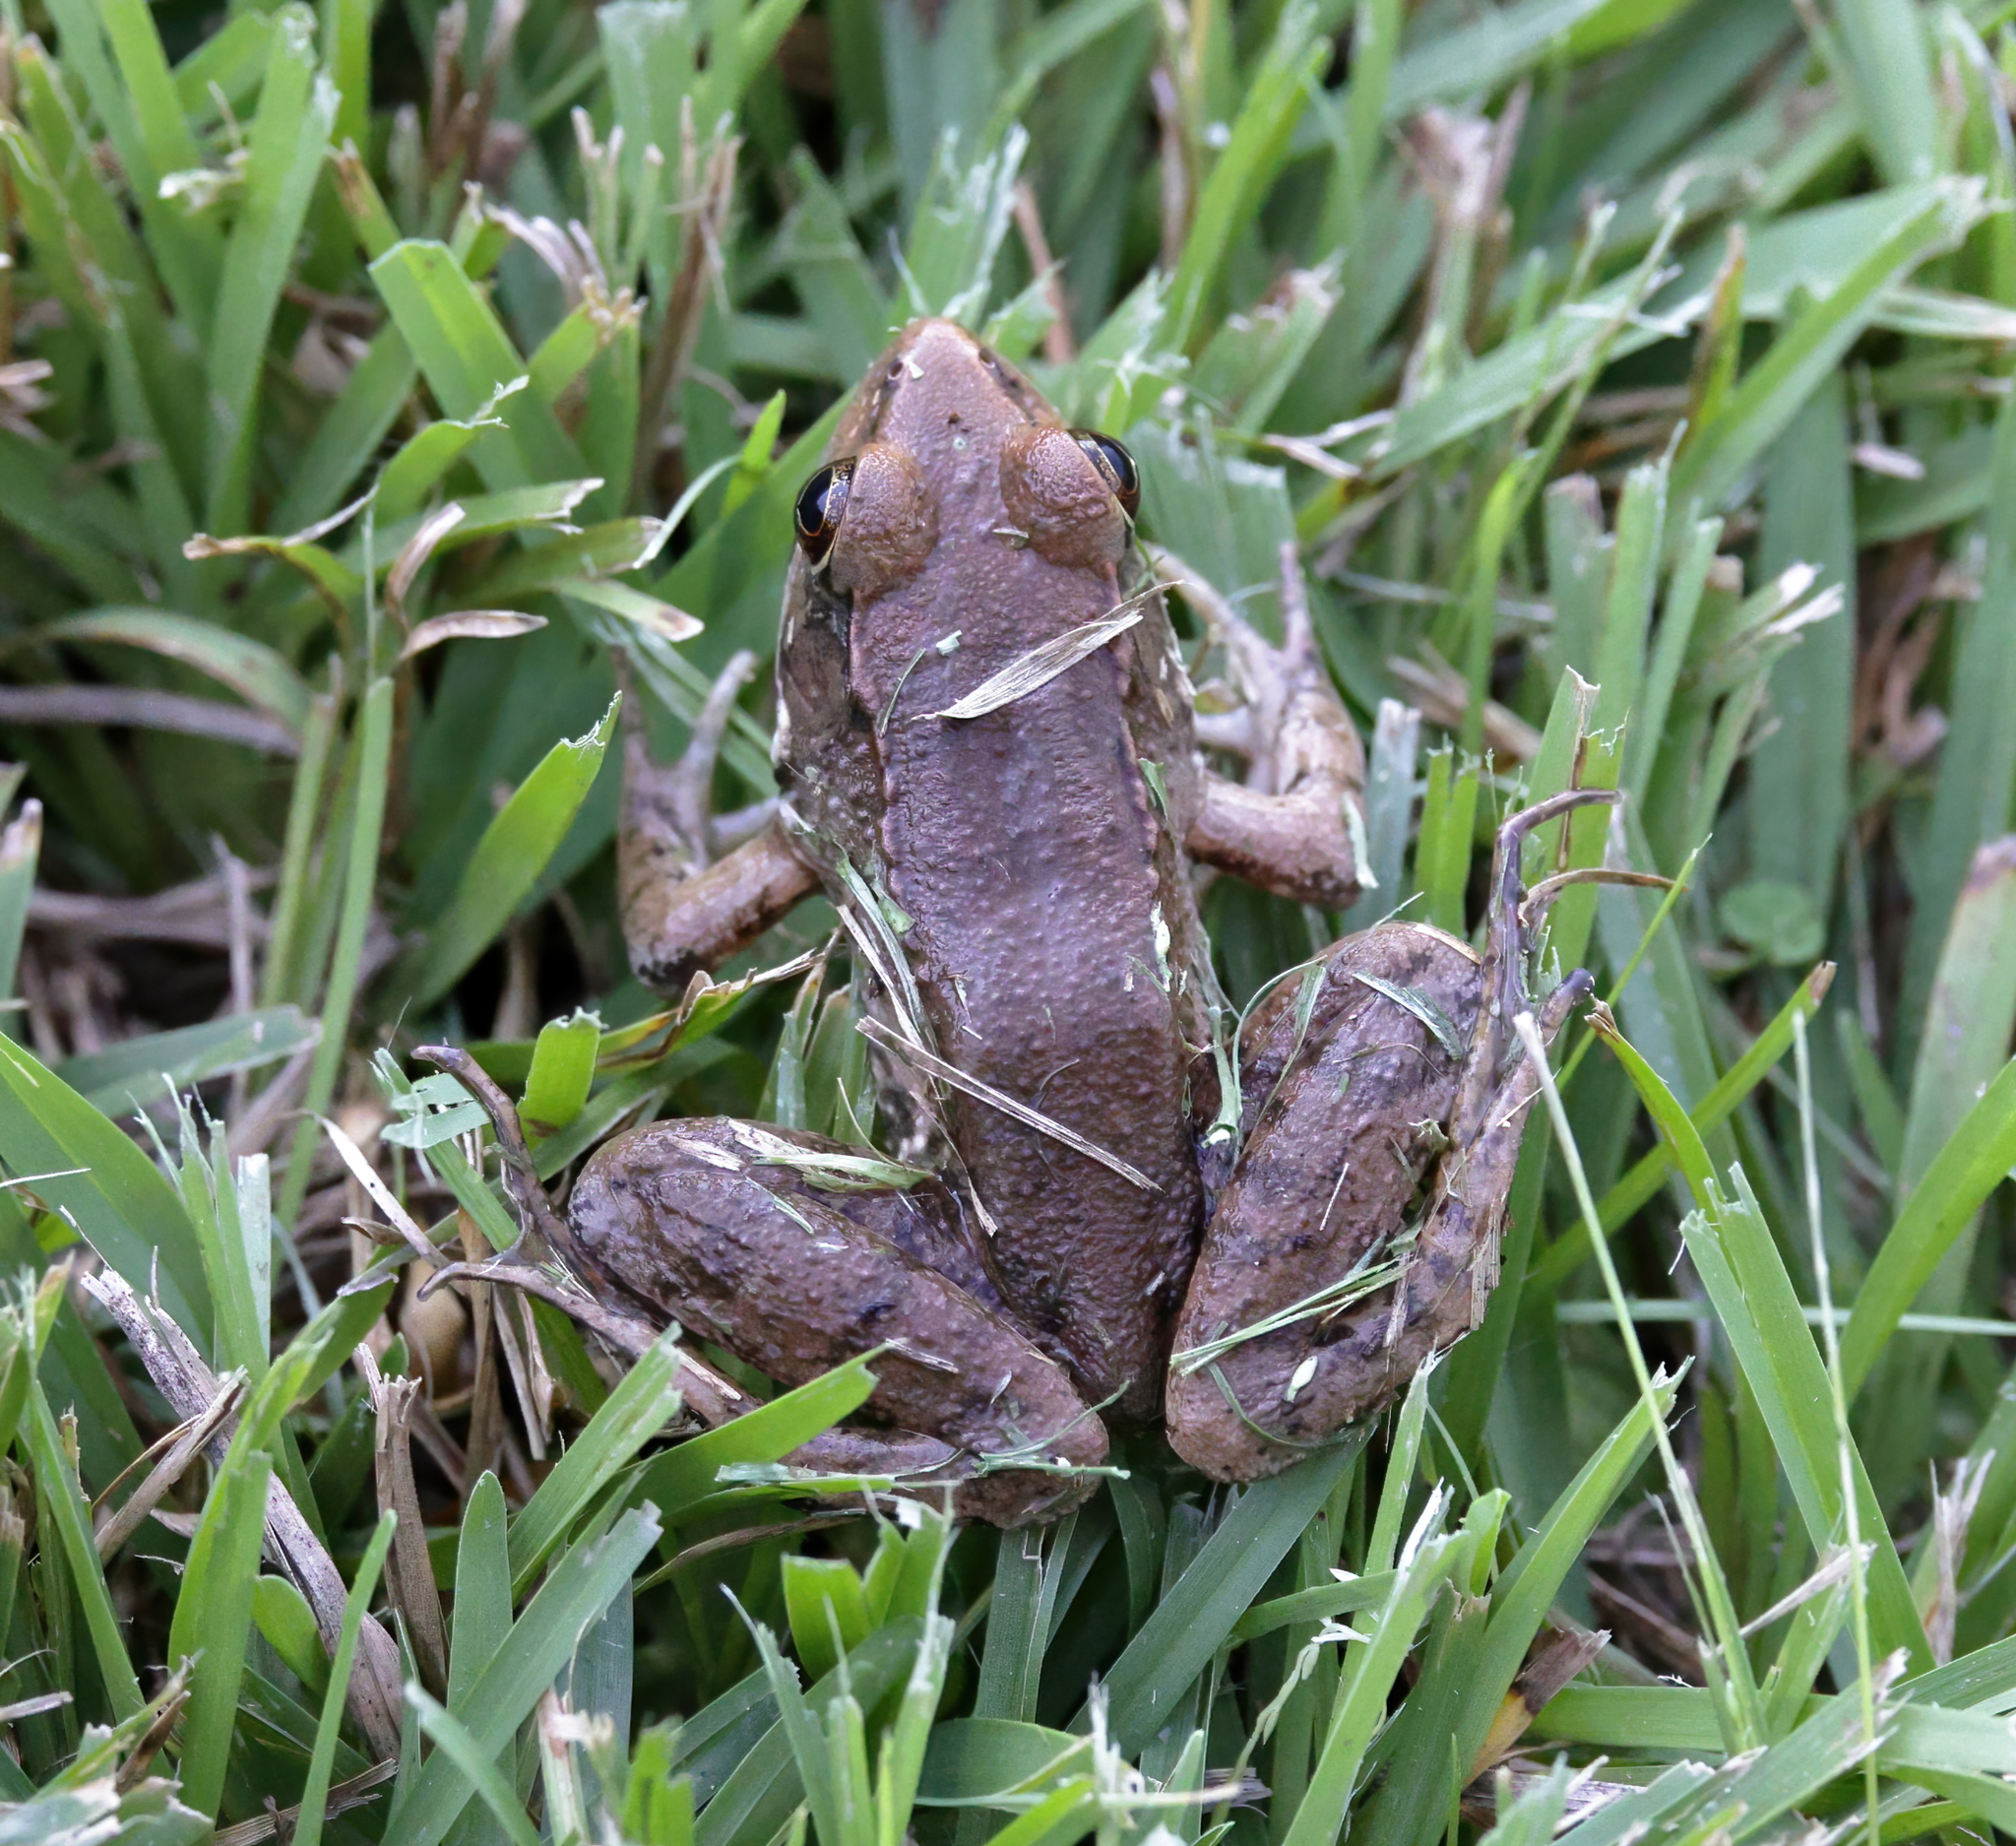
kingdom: Animalia
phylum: Chordata
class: Amphibia
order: Anura
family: Ranidae
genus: Lithobates
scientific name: Lithobates clamitans
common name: Green frog
